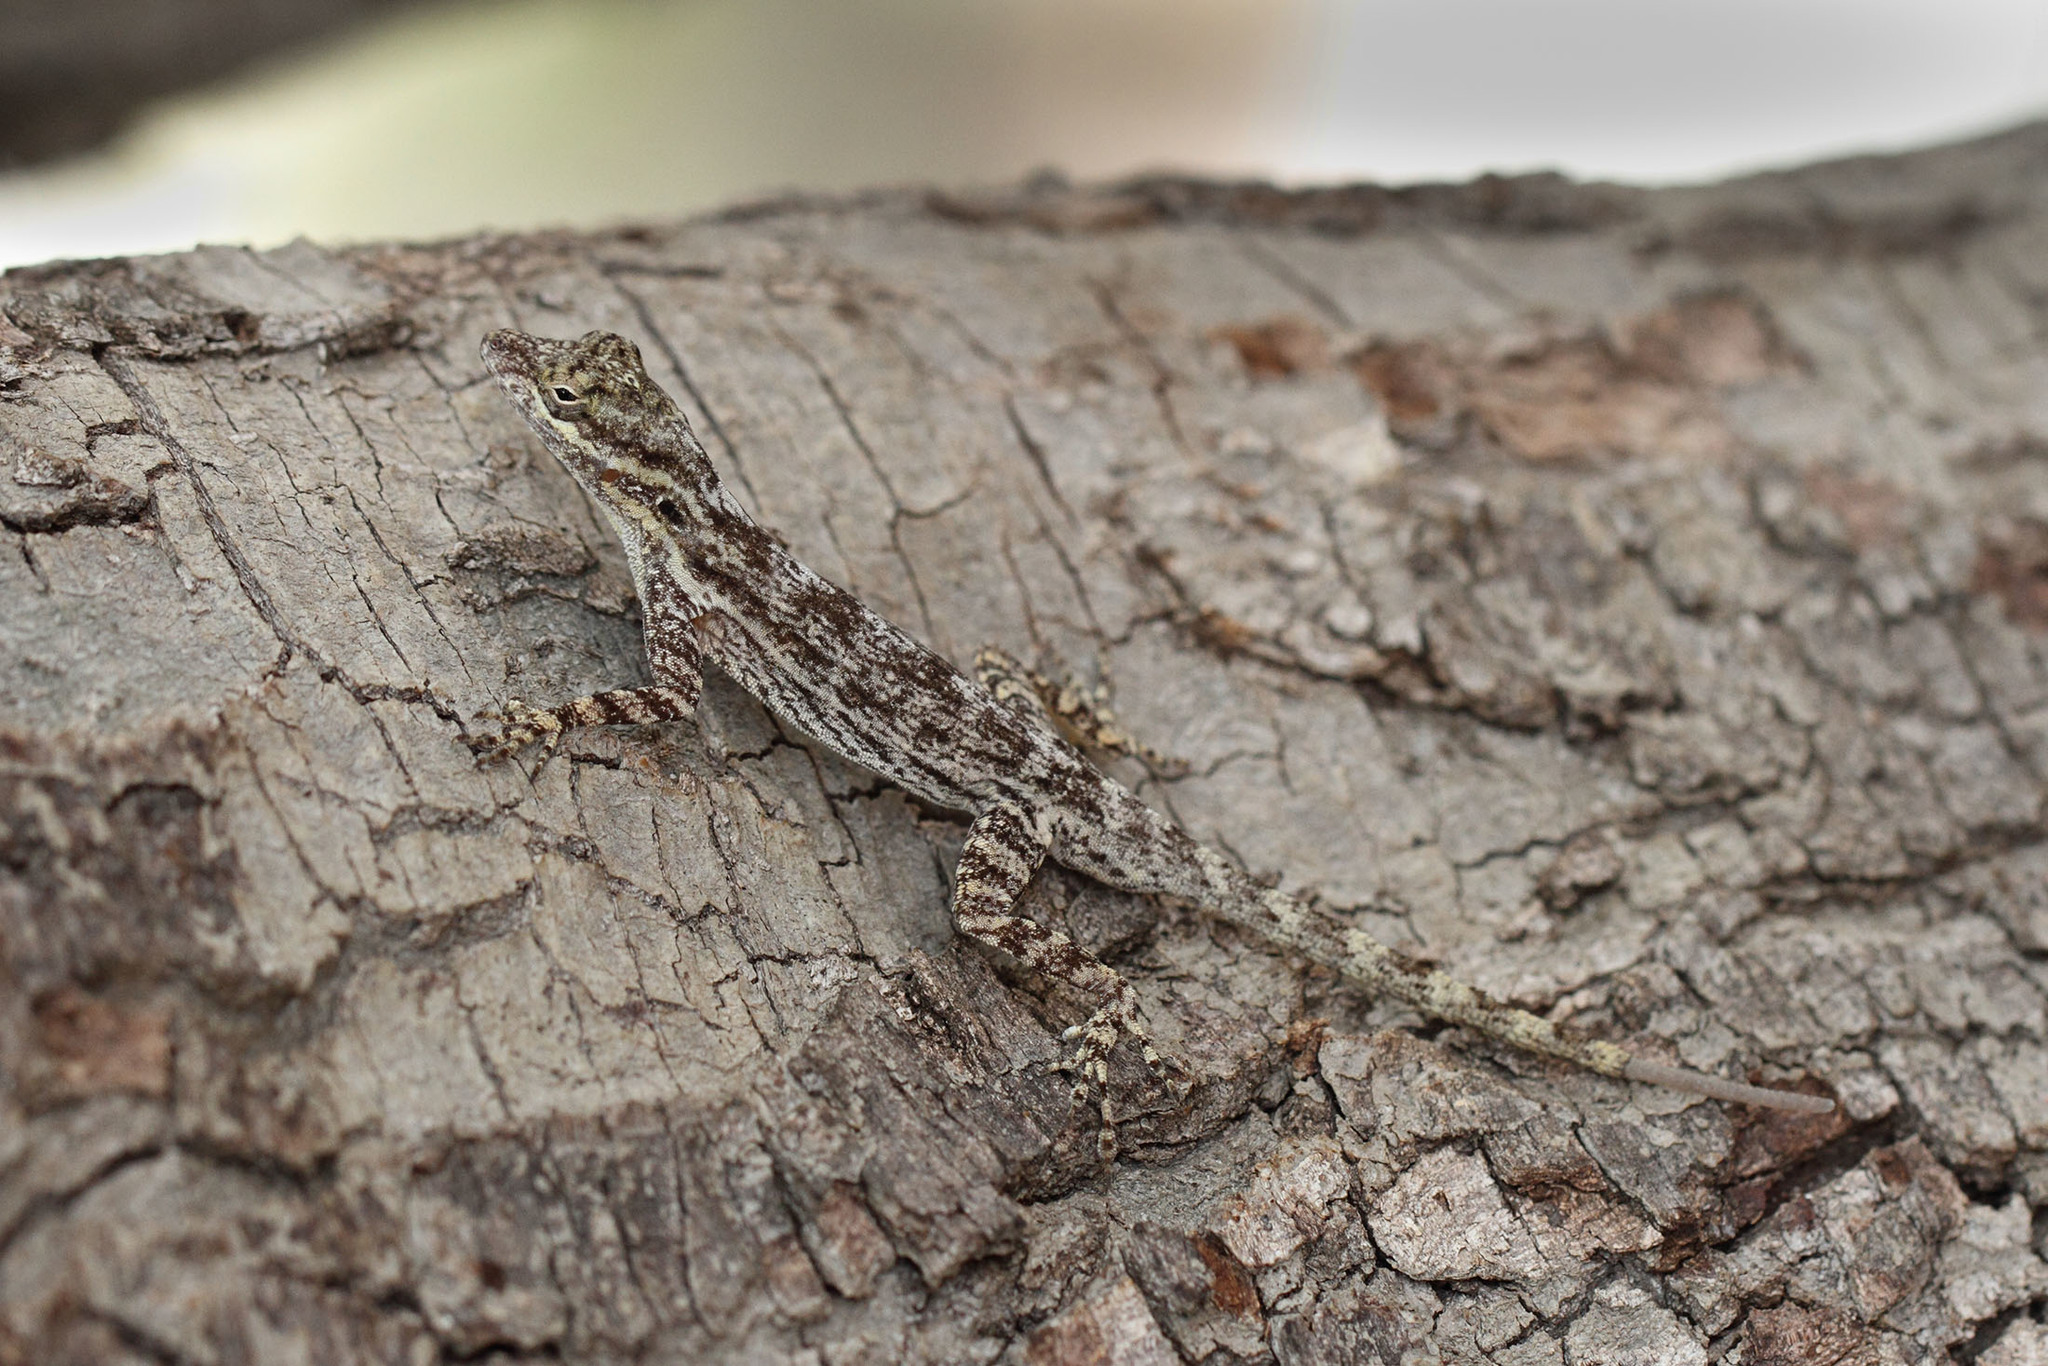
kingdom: Animalia
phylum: Chordata
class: Squamata
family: Dactyloidae
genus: Anolis
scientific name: Anolis brevirostris
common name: Desert gracile anole
